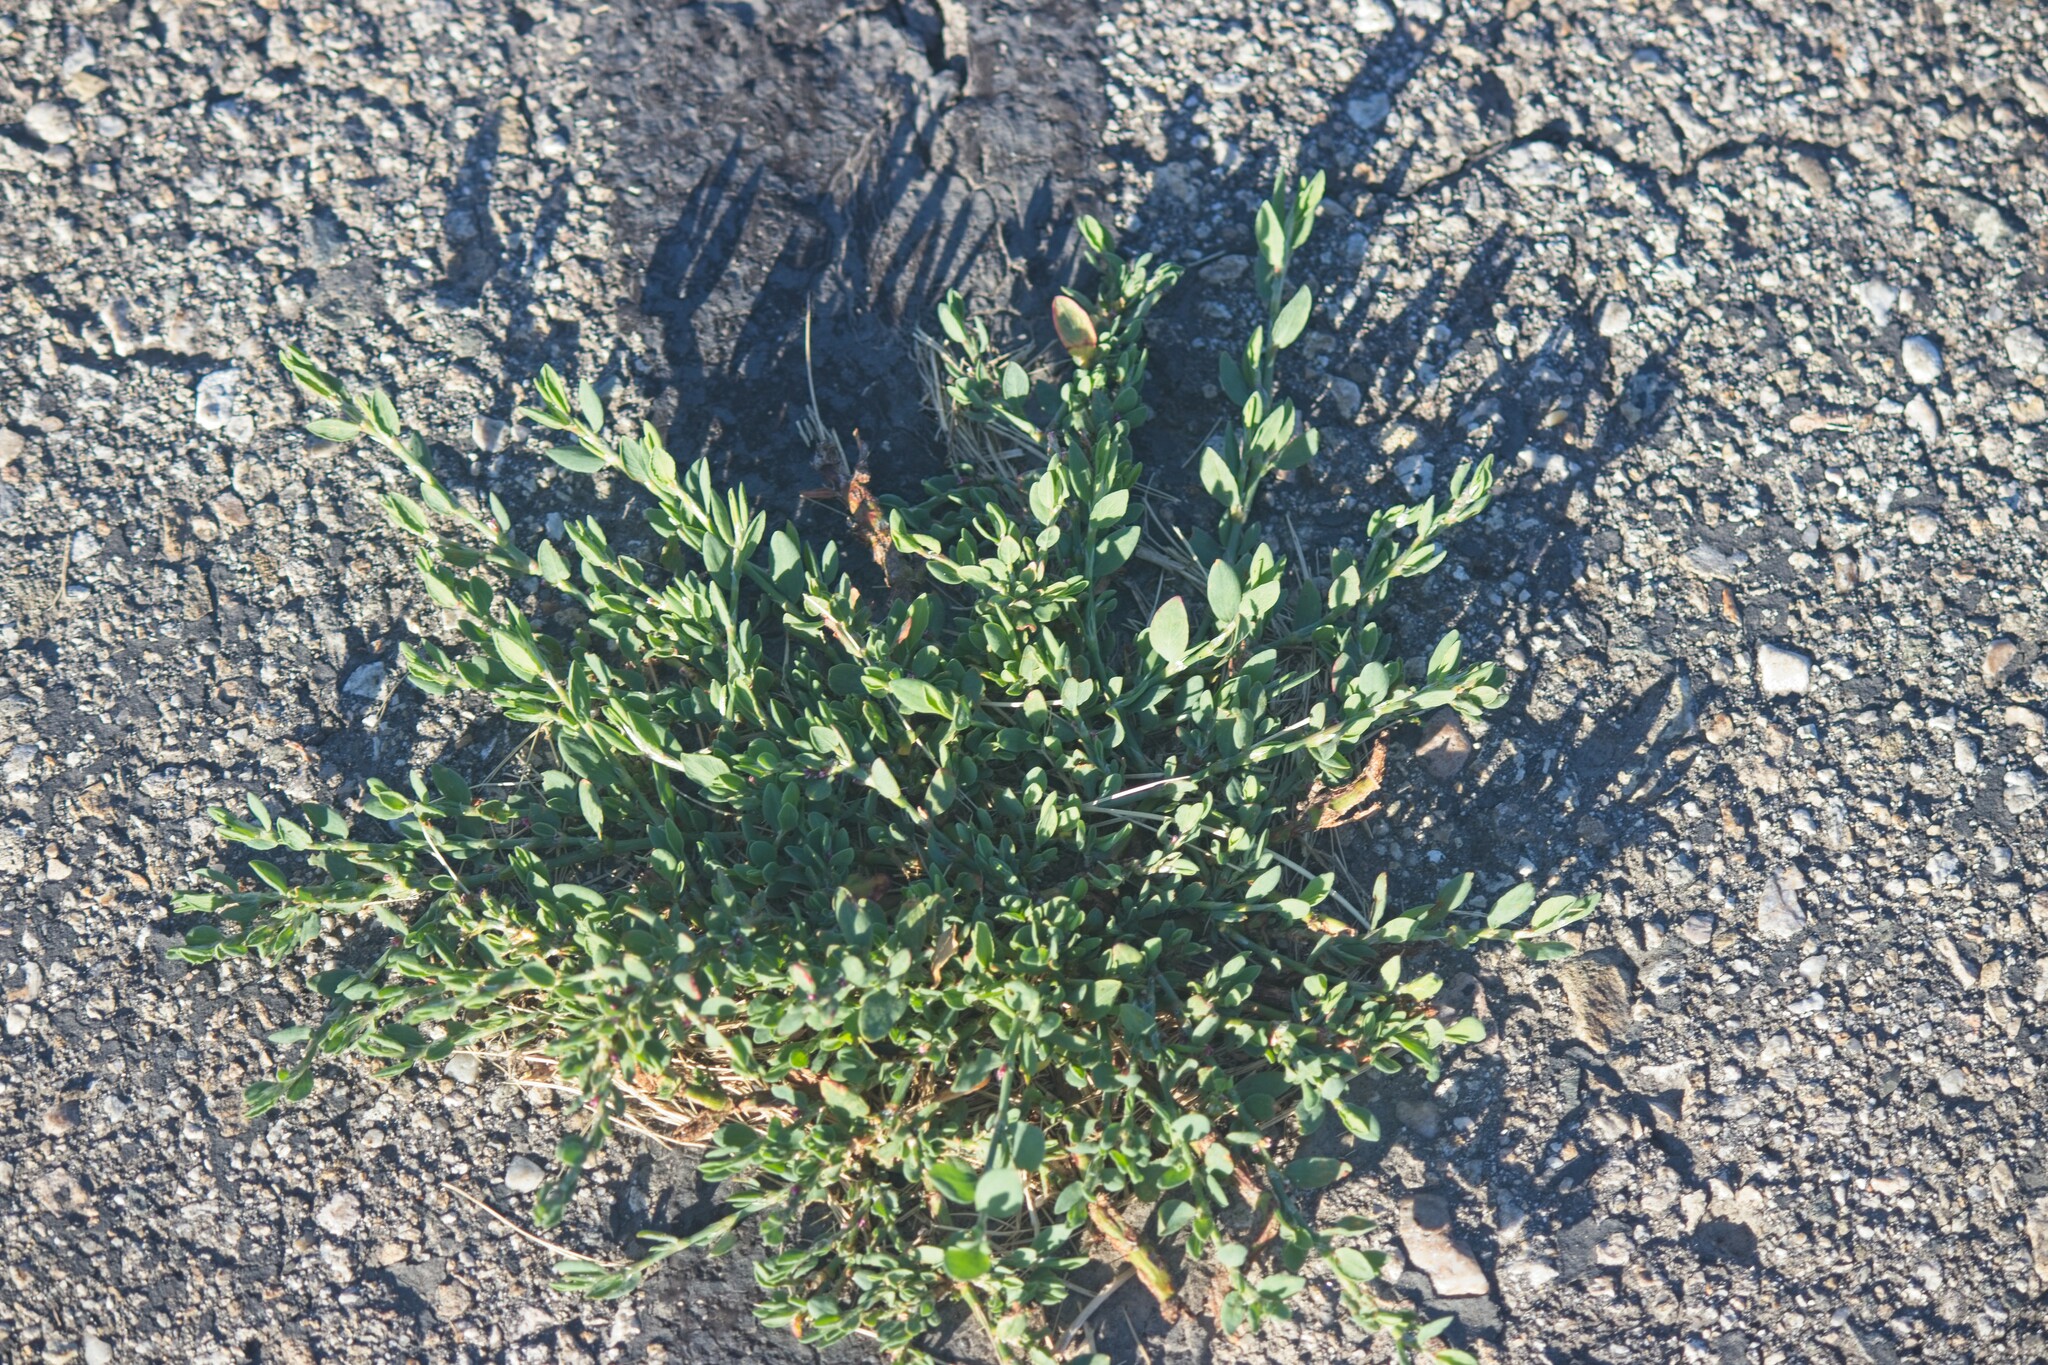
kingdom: Plantae
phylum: Tracheophyta
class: Magnoliopsida
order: Caryophyllales
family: Polygonaceae
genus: Polygonum
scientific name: Polygonum aviculare
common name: Prostrate knotweed
